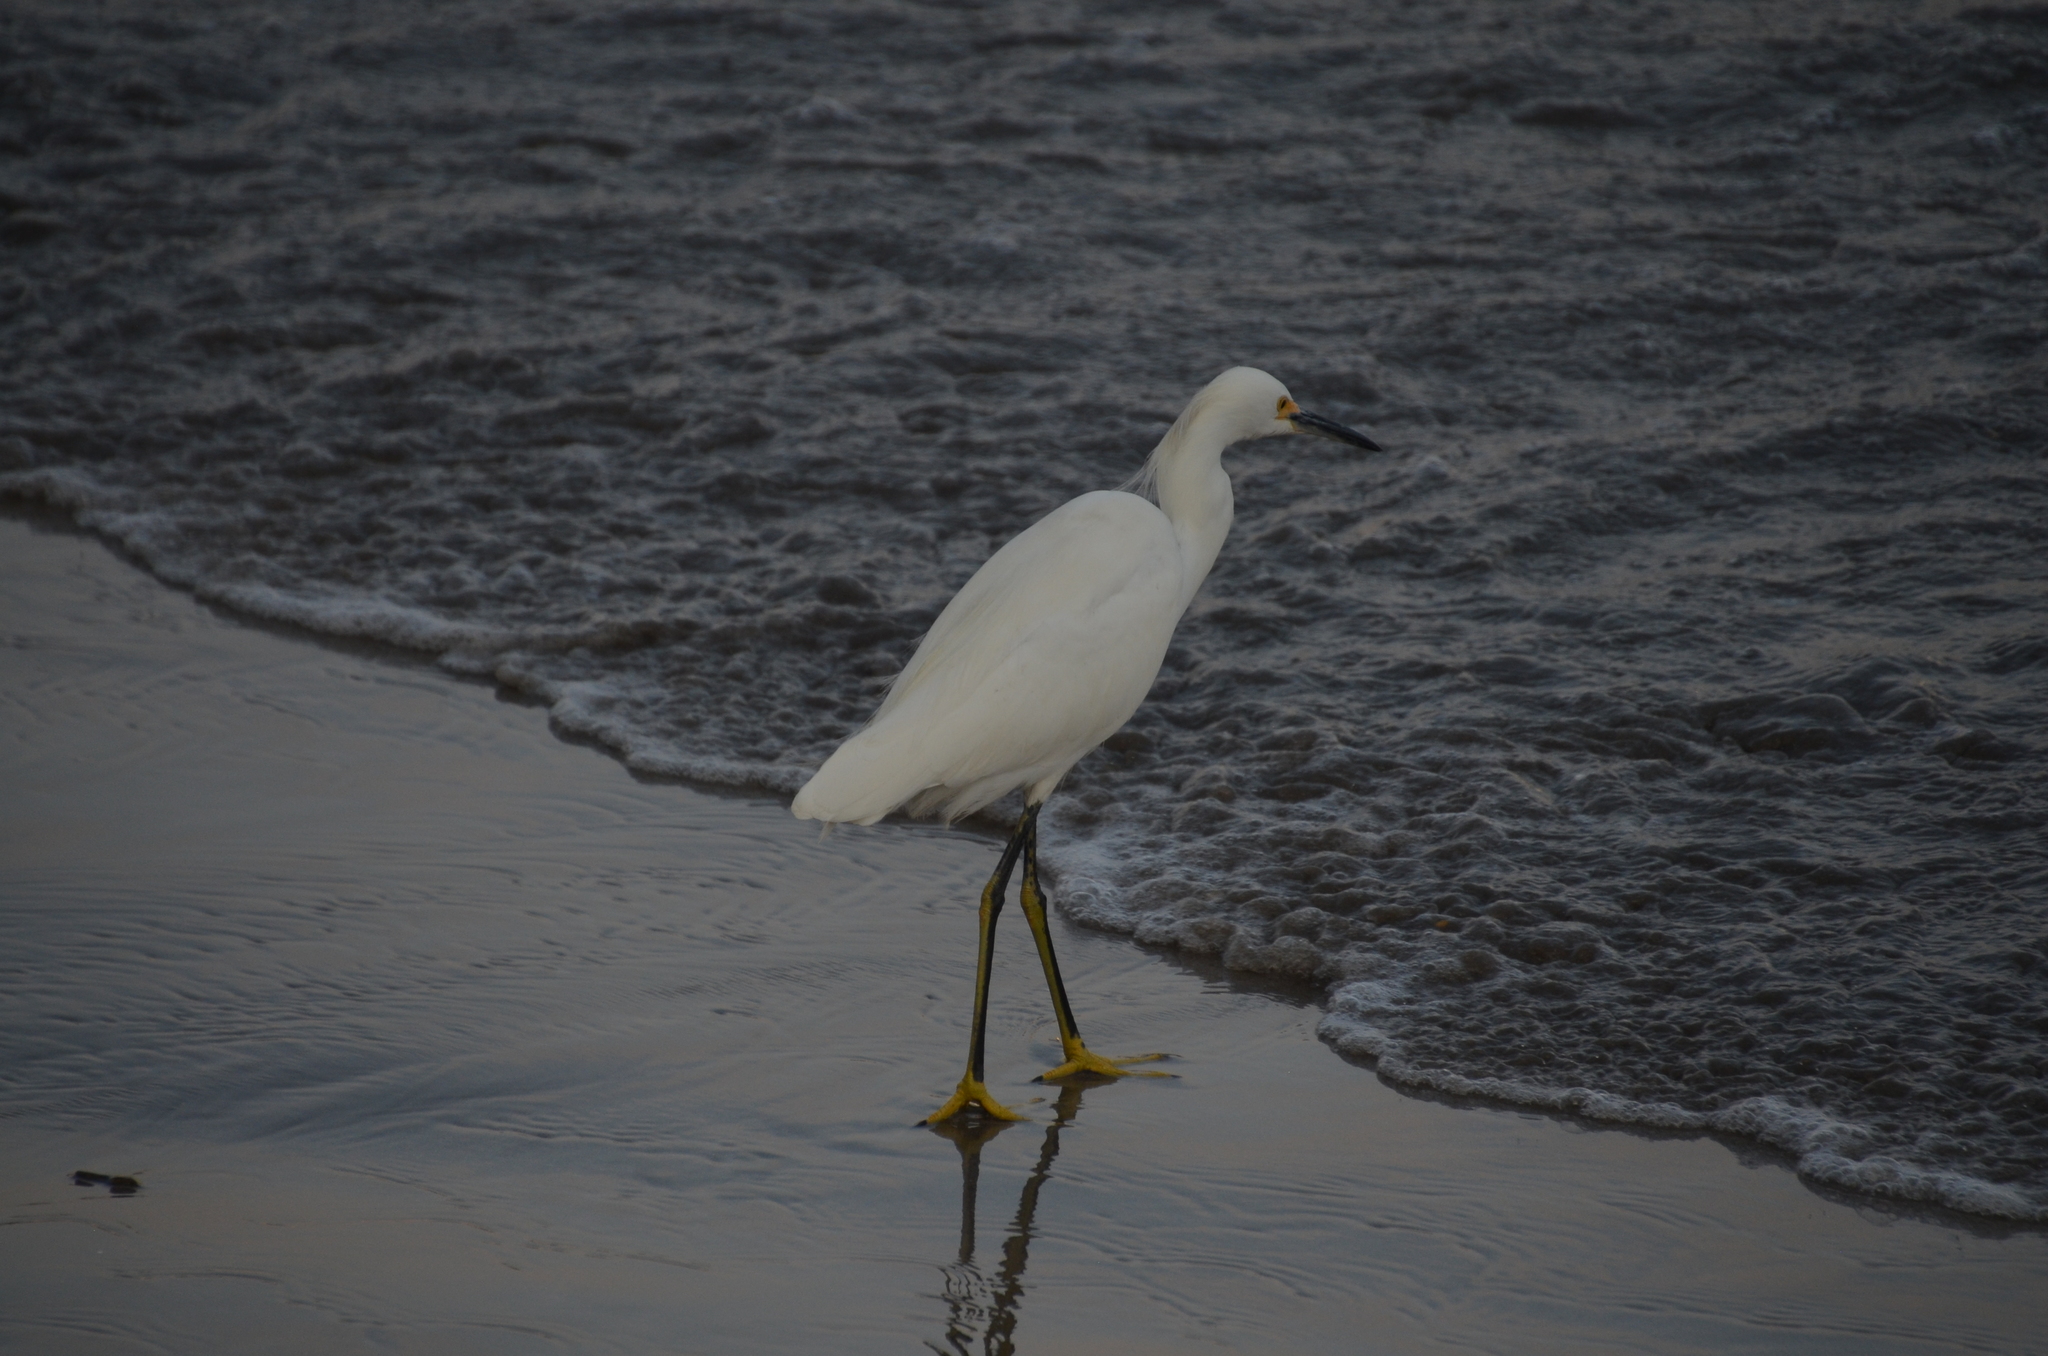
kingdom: Animalia
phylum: Chordata
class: Aves
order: Pelecaniformes
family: Ardeidae
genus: Egretta
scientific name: Egretta thula
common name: Snowy egret
